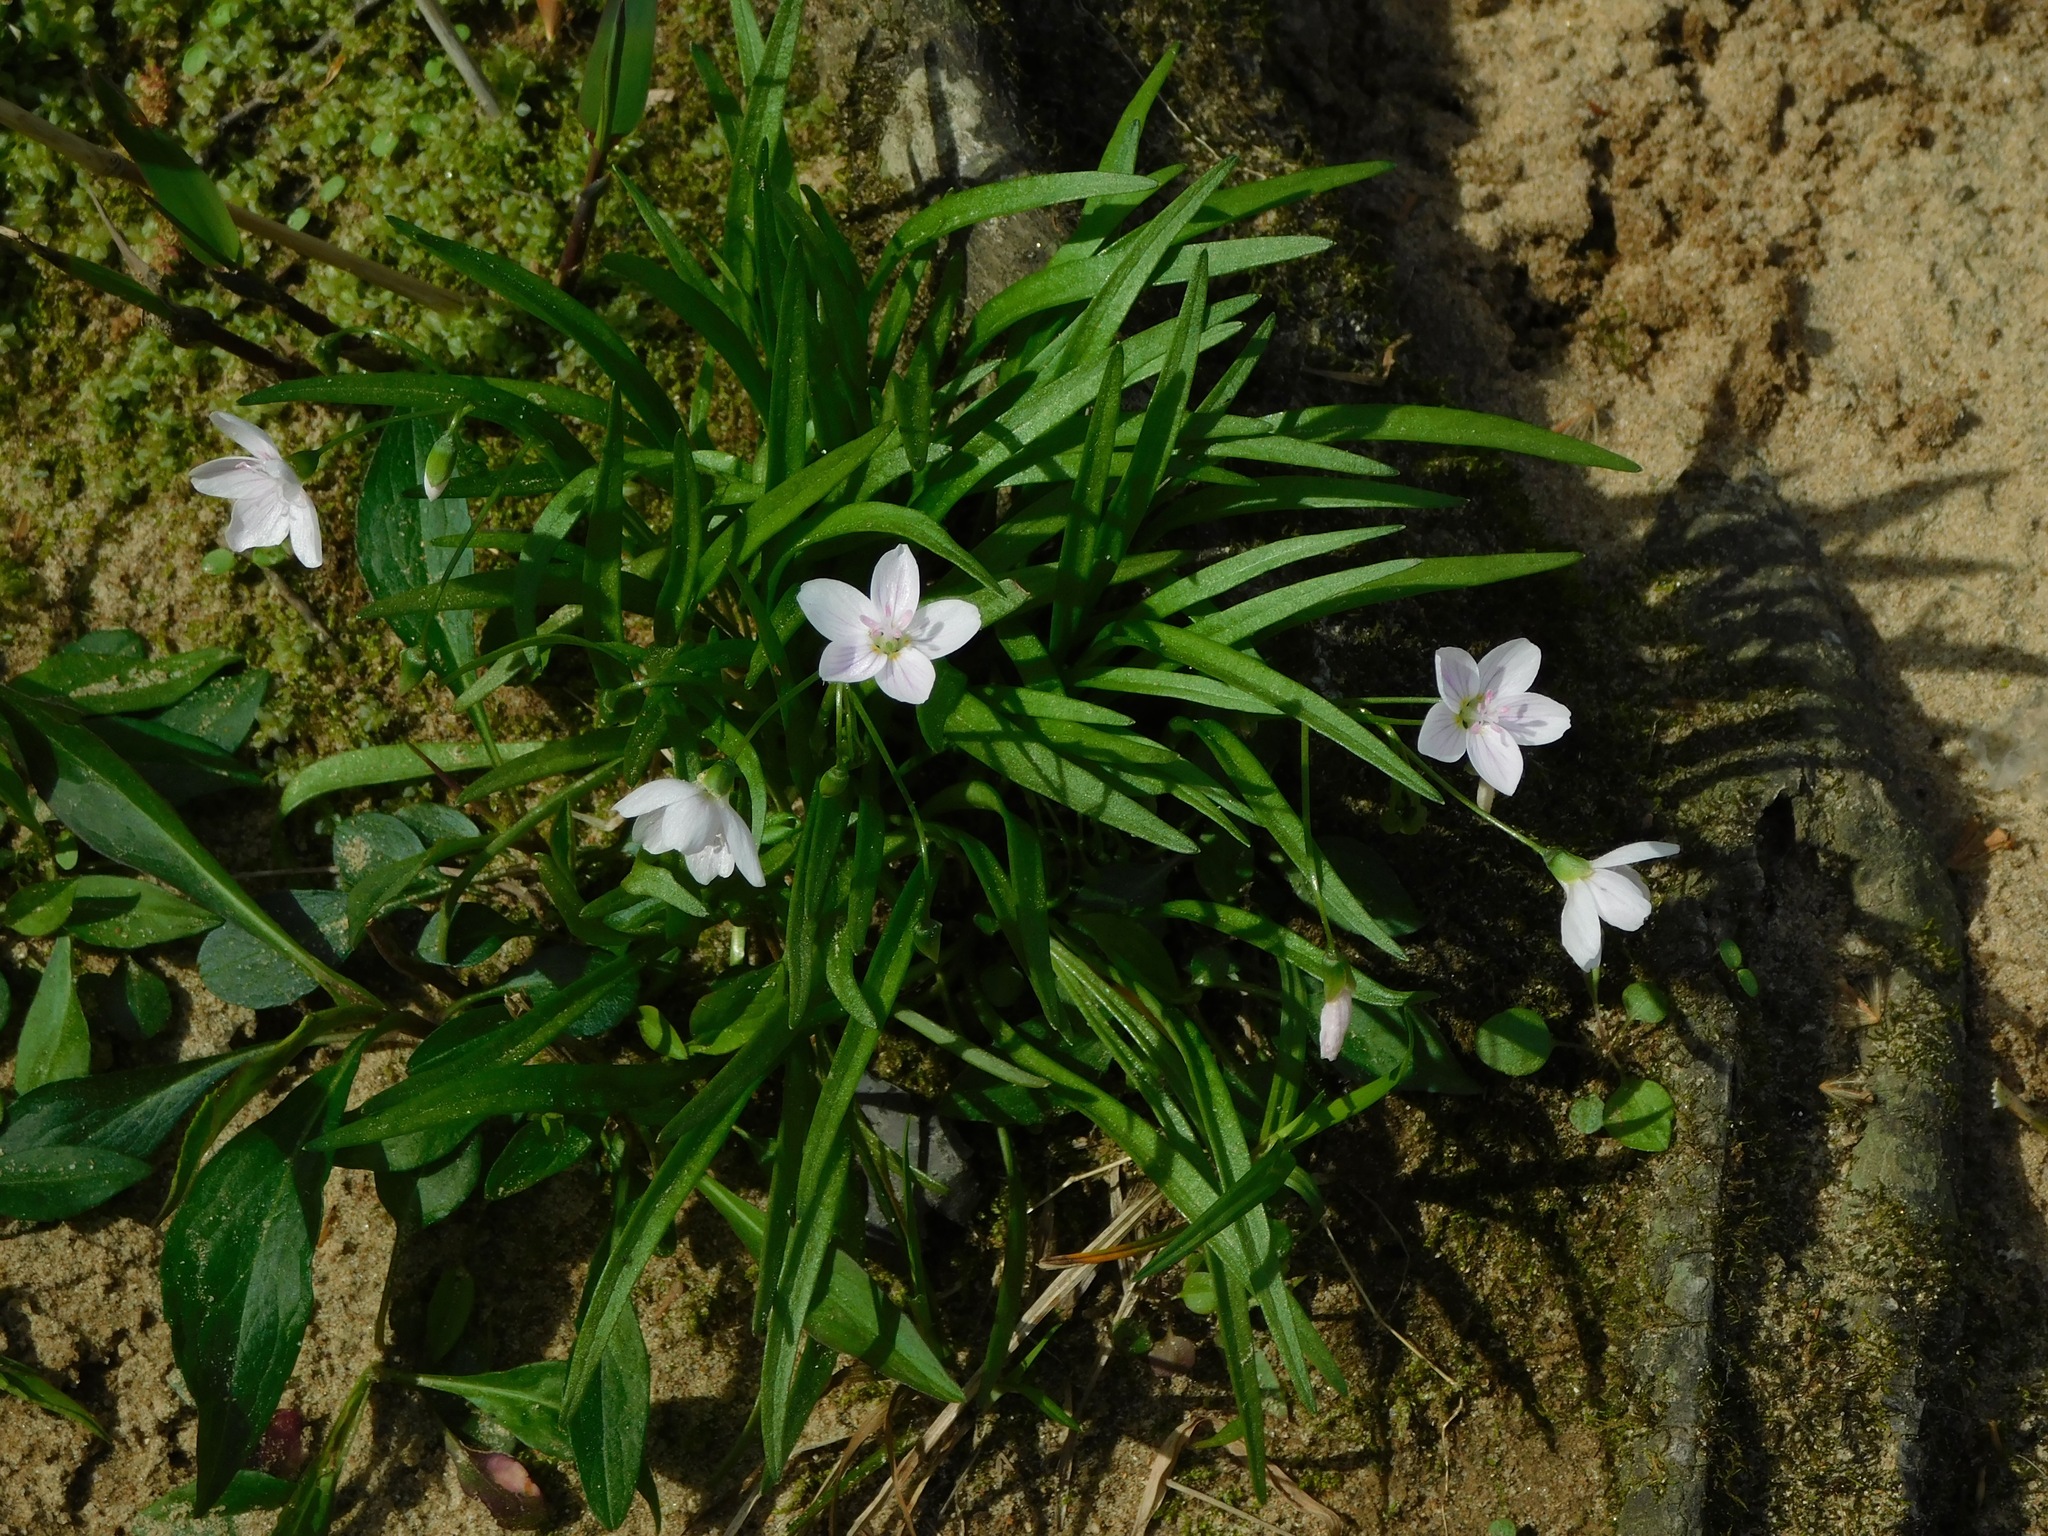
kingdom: Plantae
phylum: Tracheophyta
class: Magnoliopsida
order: Caryophyllales
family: Montiaceae
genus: Claytonia
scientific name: Claytonia virginica
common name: Virginia springbeauty
